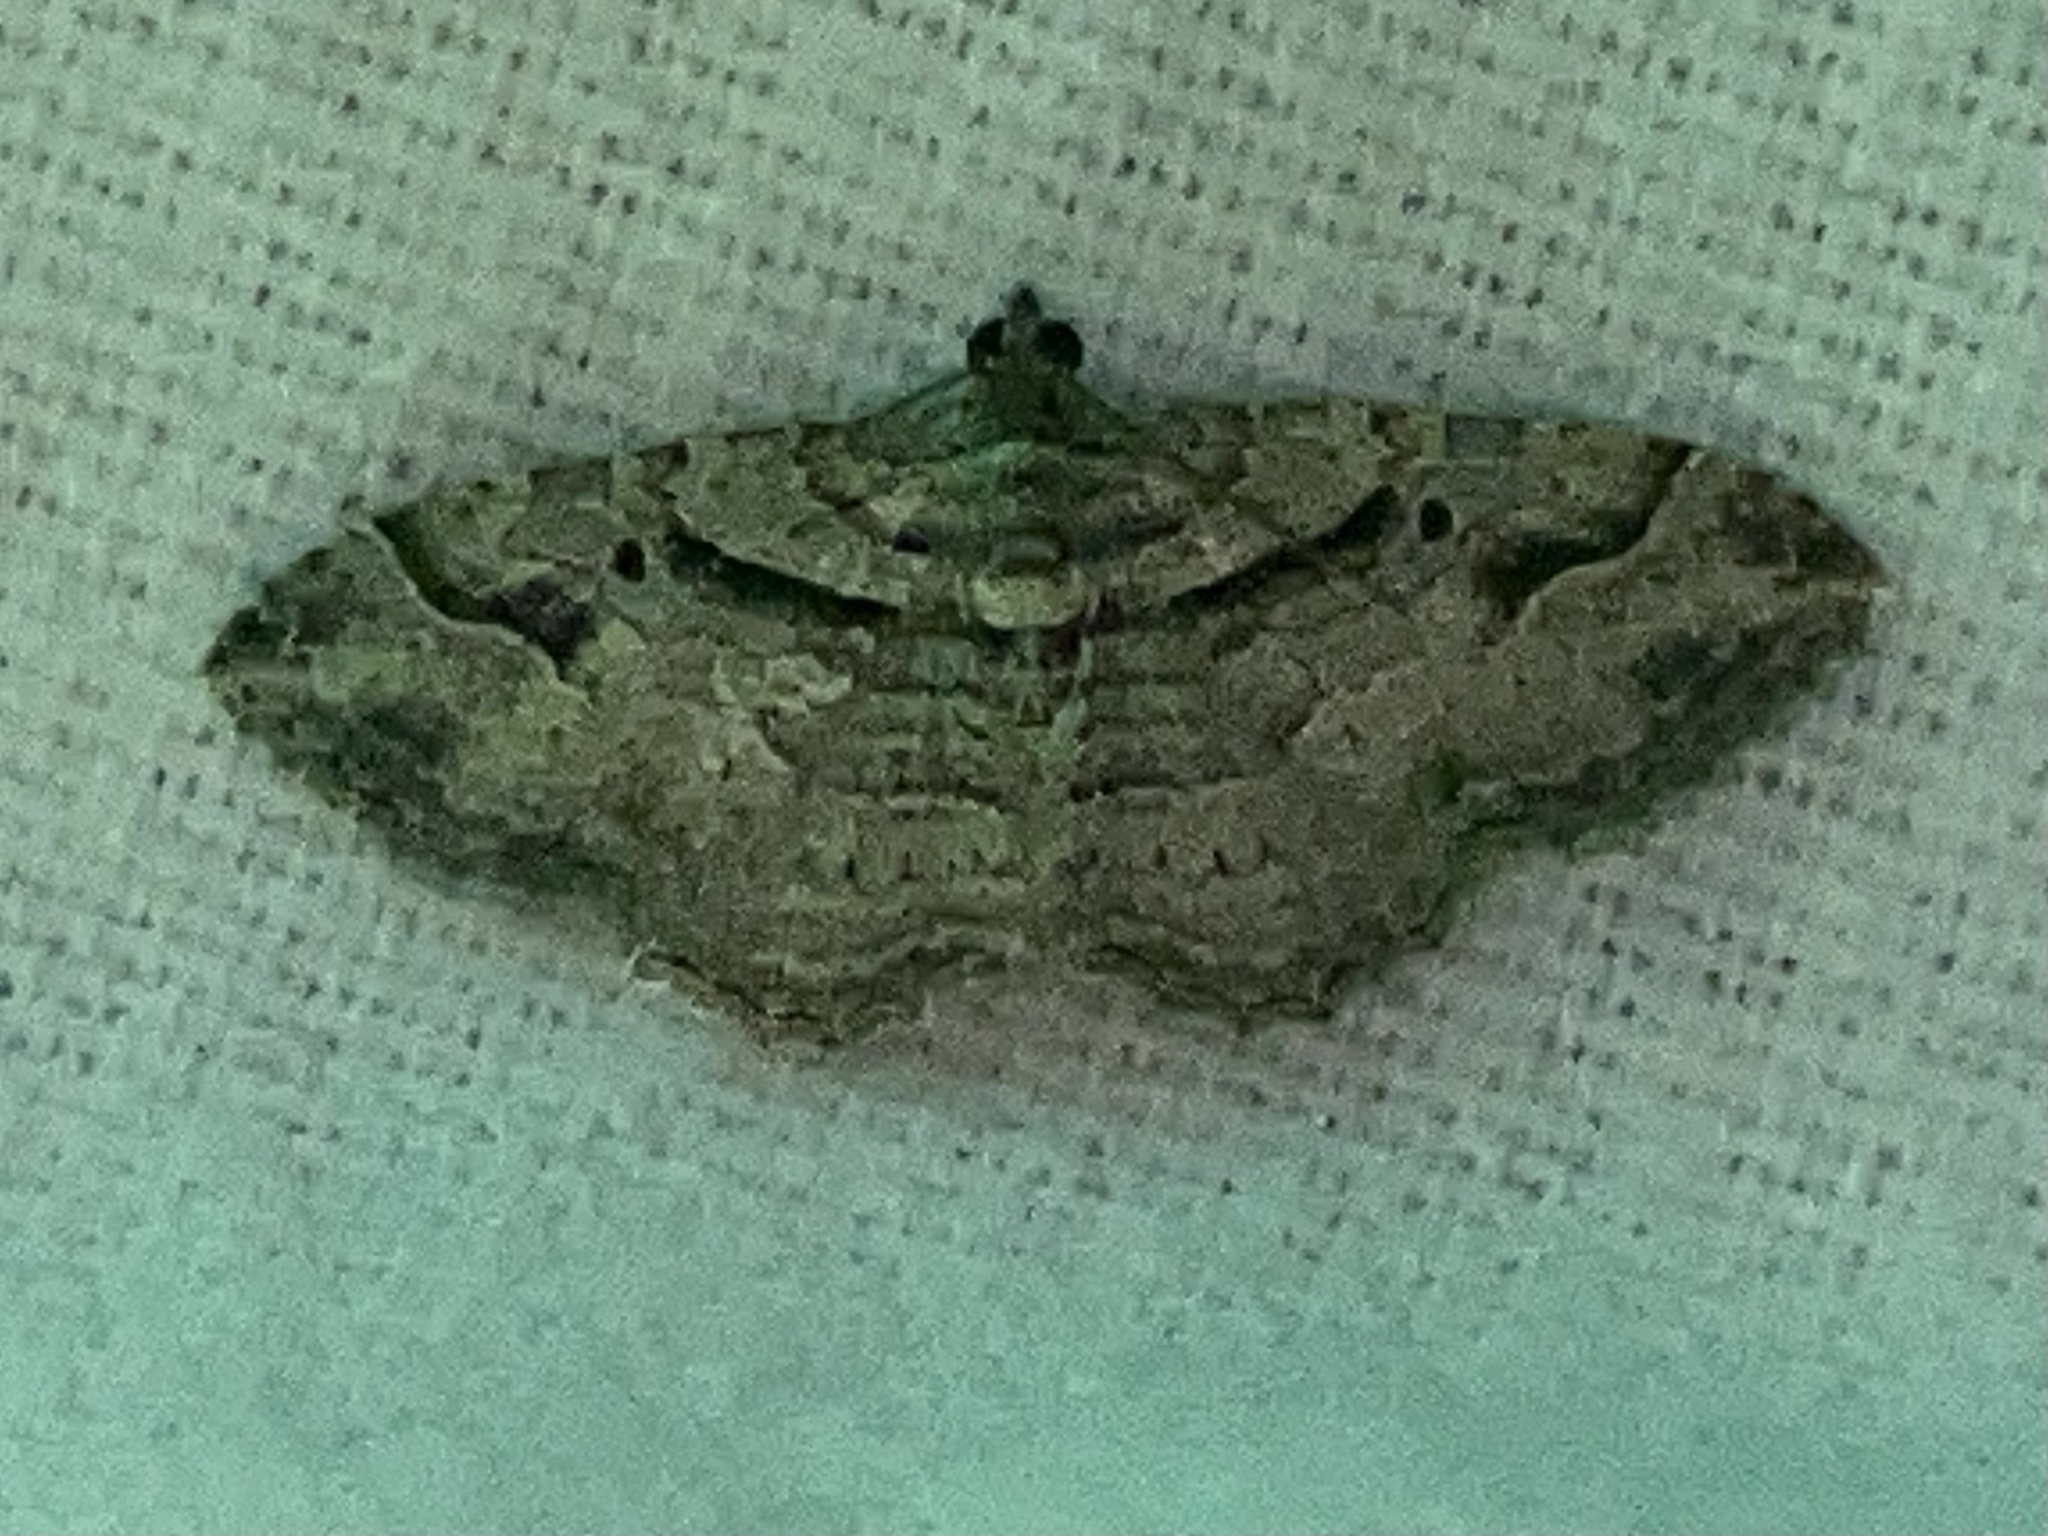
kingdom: Animalia
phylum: Arthropoda
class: Insecta
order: Lepidoptera
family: Geometridae
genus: Costaconvexa
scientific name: Costaconvexa centrostrigaria
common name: Bent-line carpet
